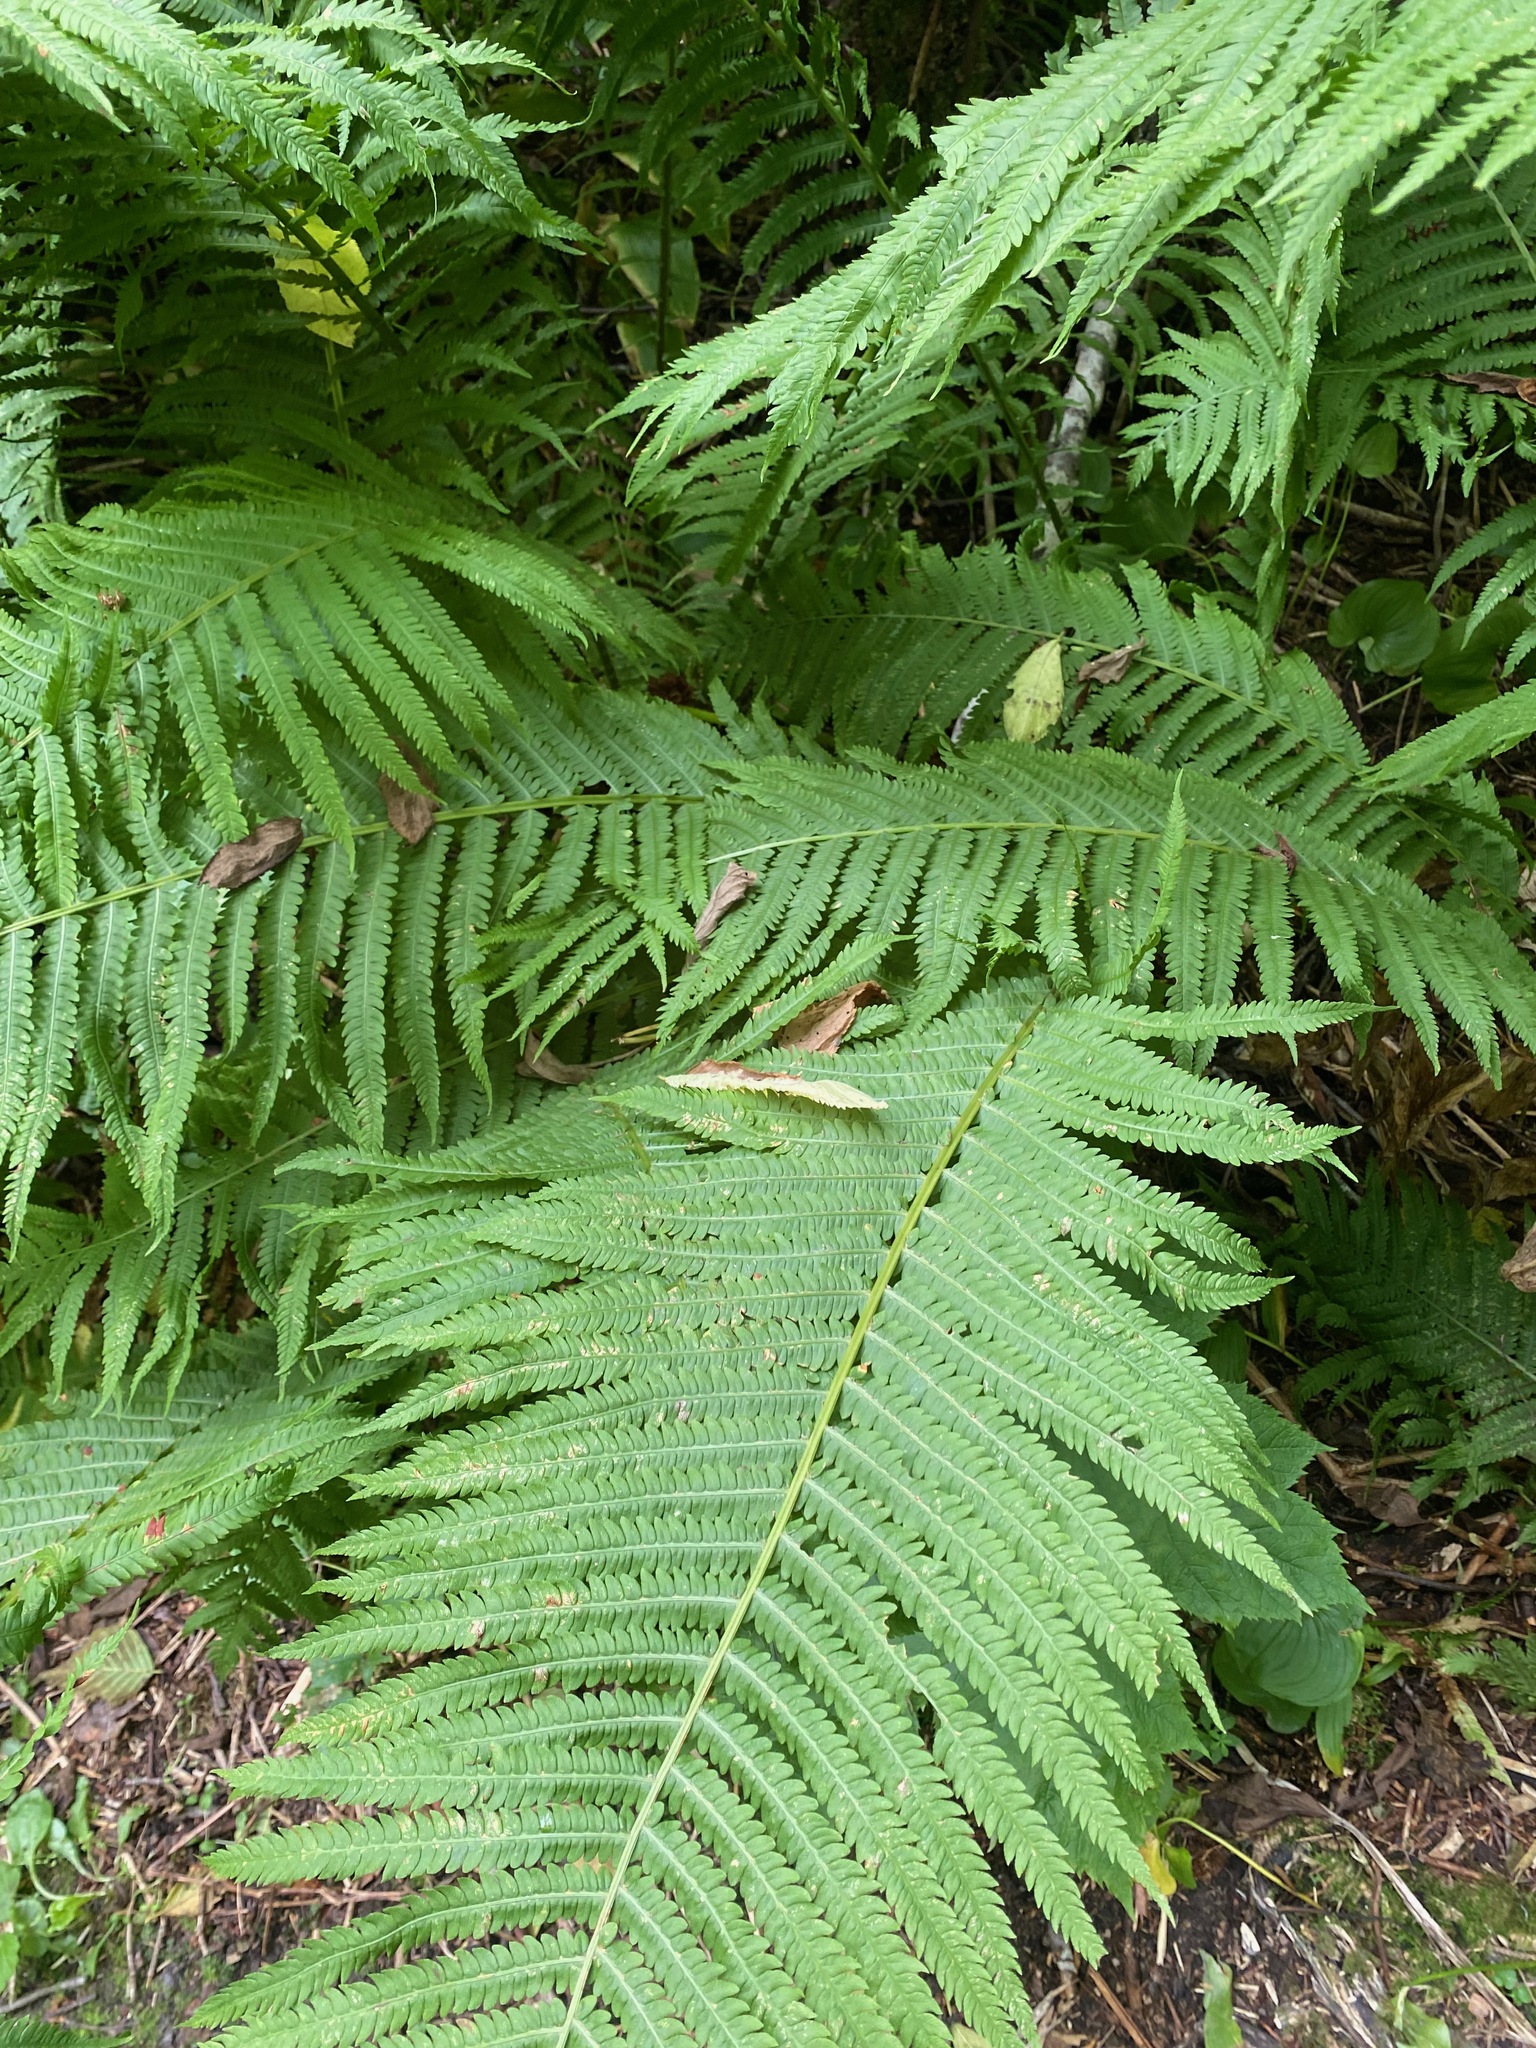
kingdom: Plantae
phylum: Tracheophyta
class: Polypodiopsida
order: Polypodiales
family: Onocleaceae
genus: Matteuccia
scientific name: Matteuccia struthiopteris
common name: Ostrich fern
